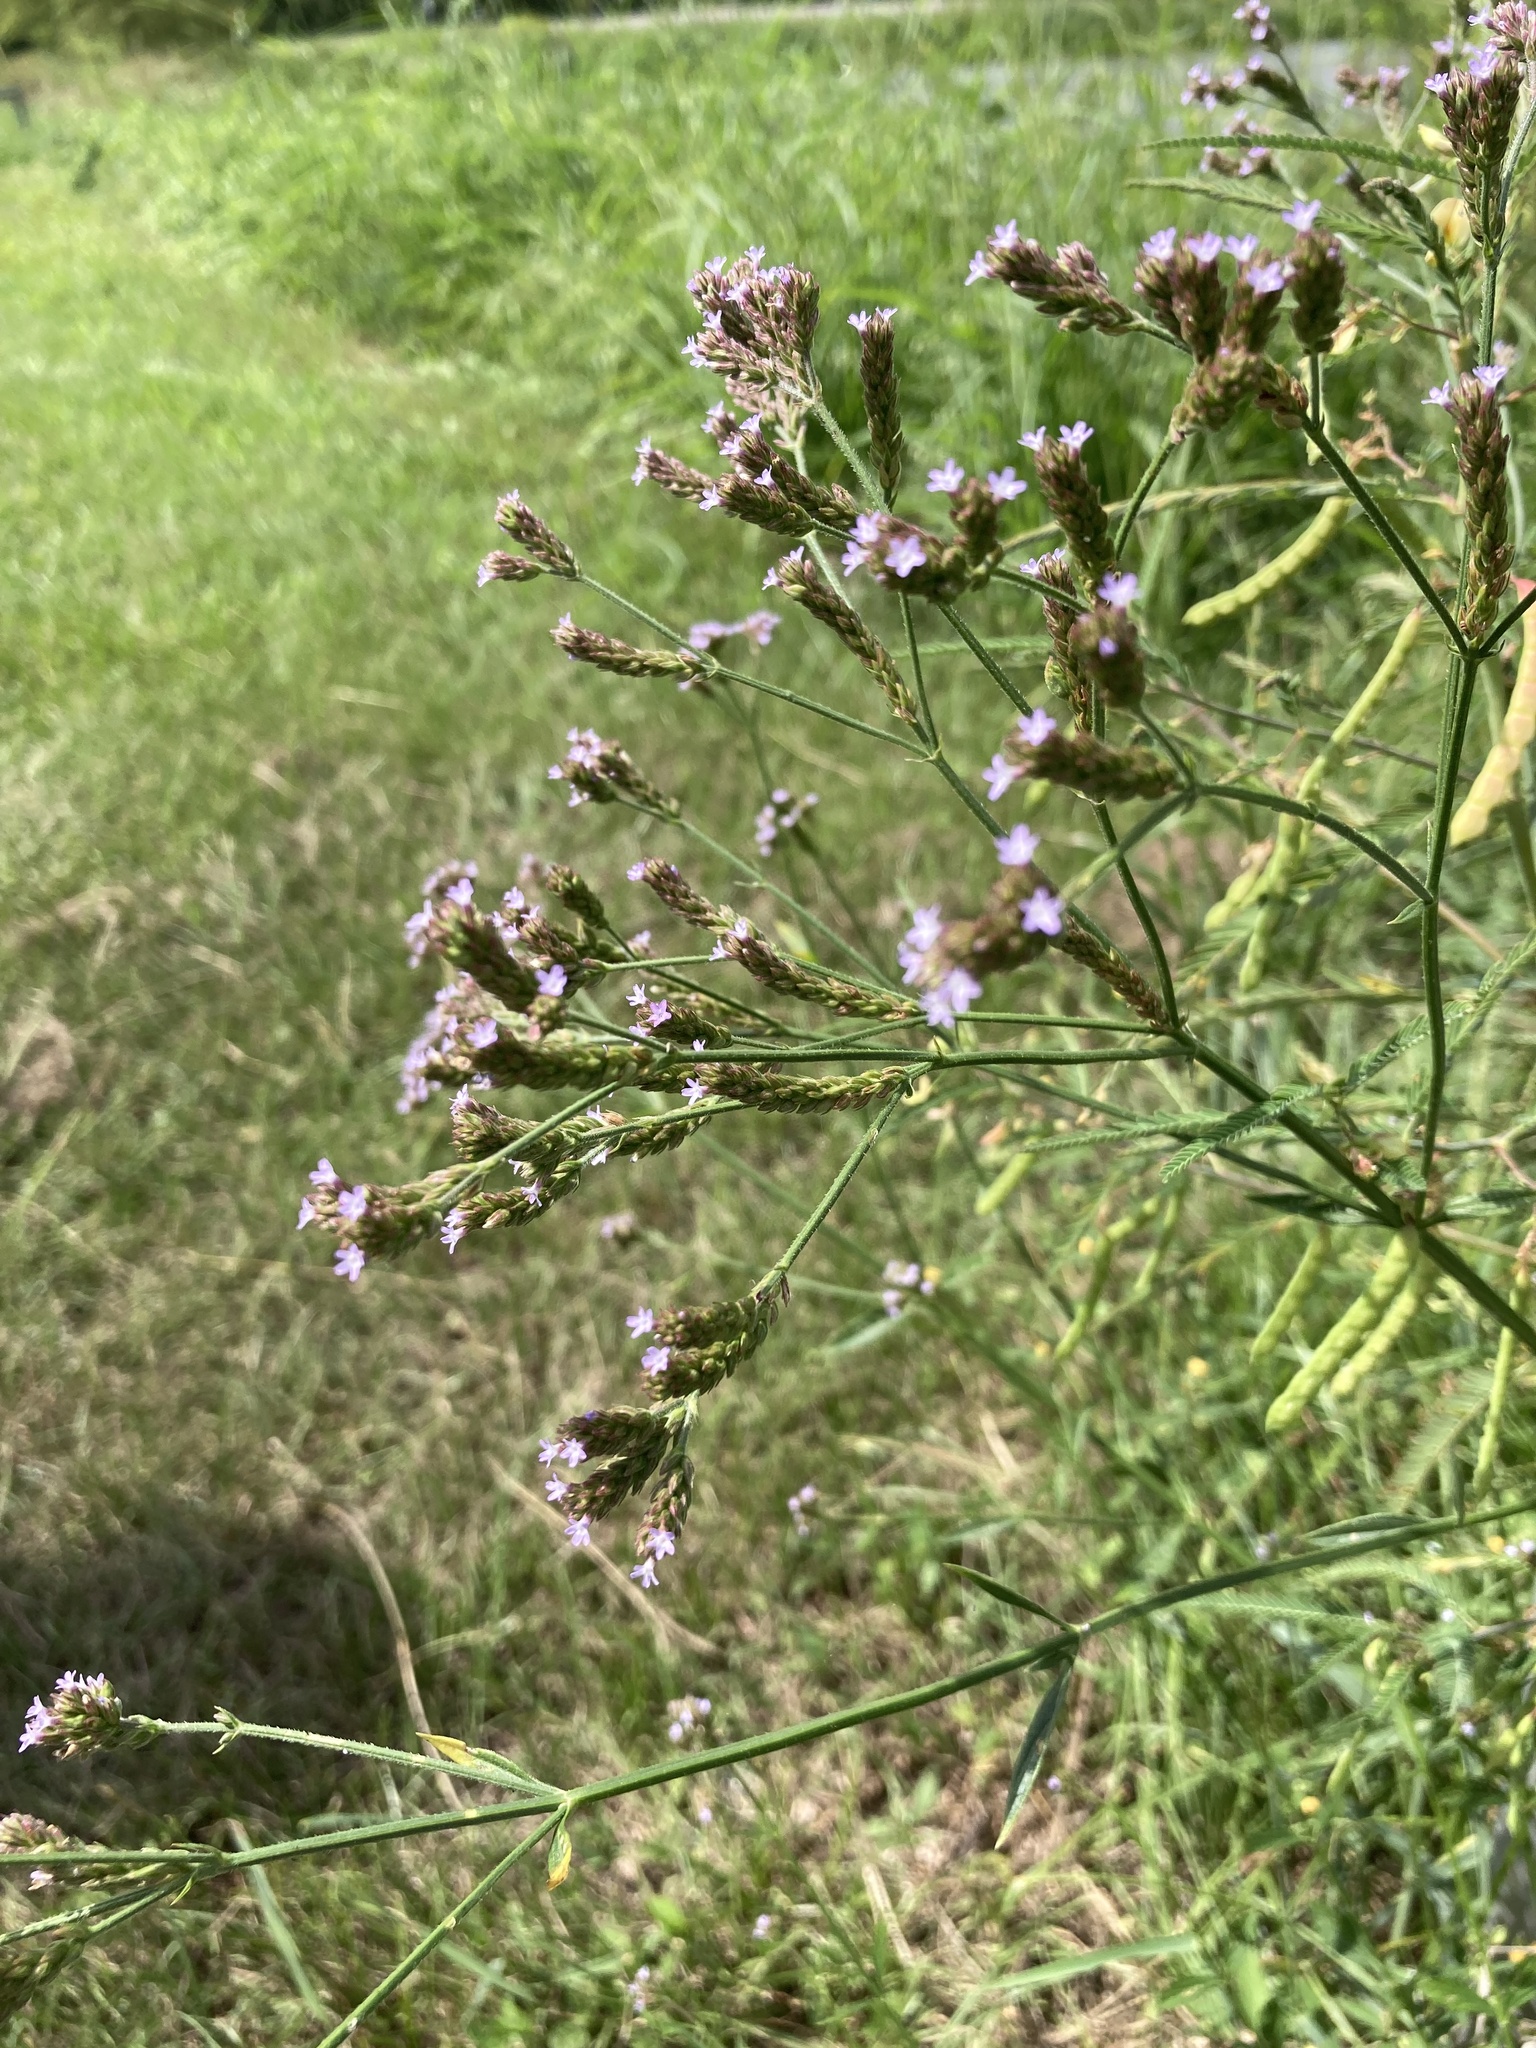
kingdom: Plantae
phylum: Tracheophyta
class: Magnoliopsida
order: Lamiales
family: Verbenaceae
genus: Verbena
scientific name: Verbena brasiliensis
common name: Brazilian vervain
